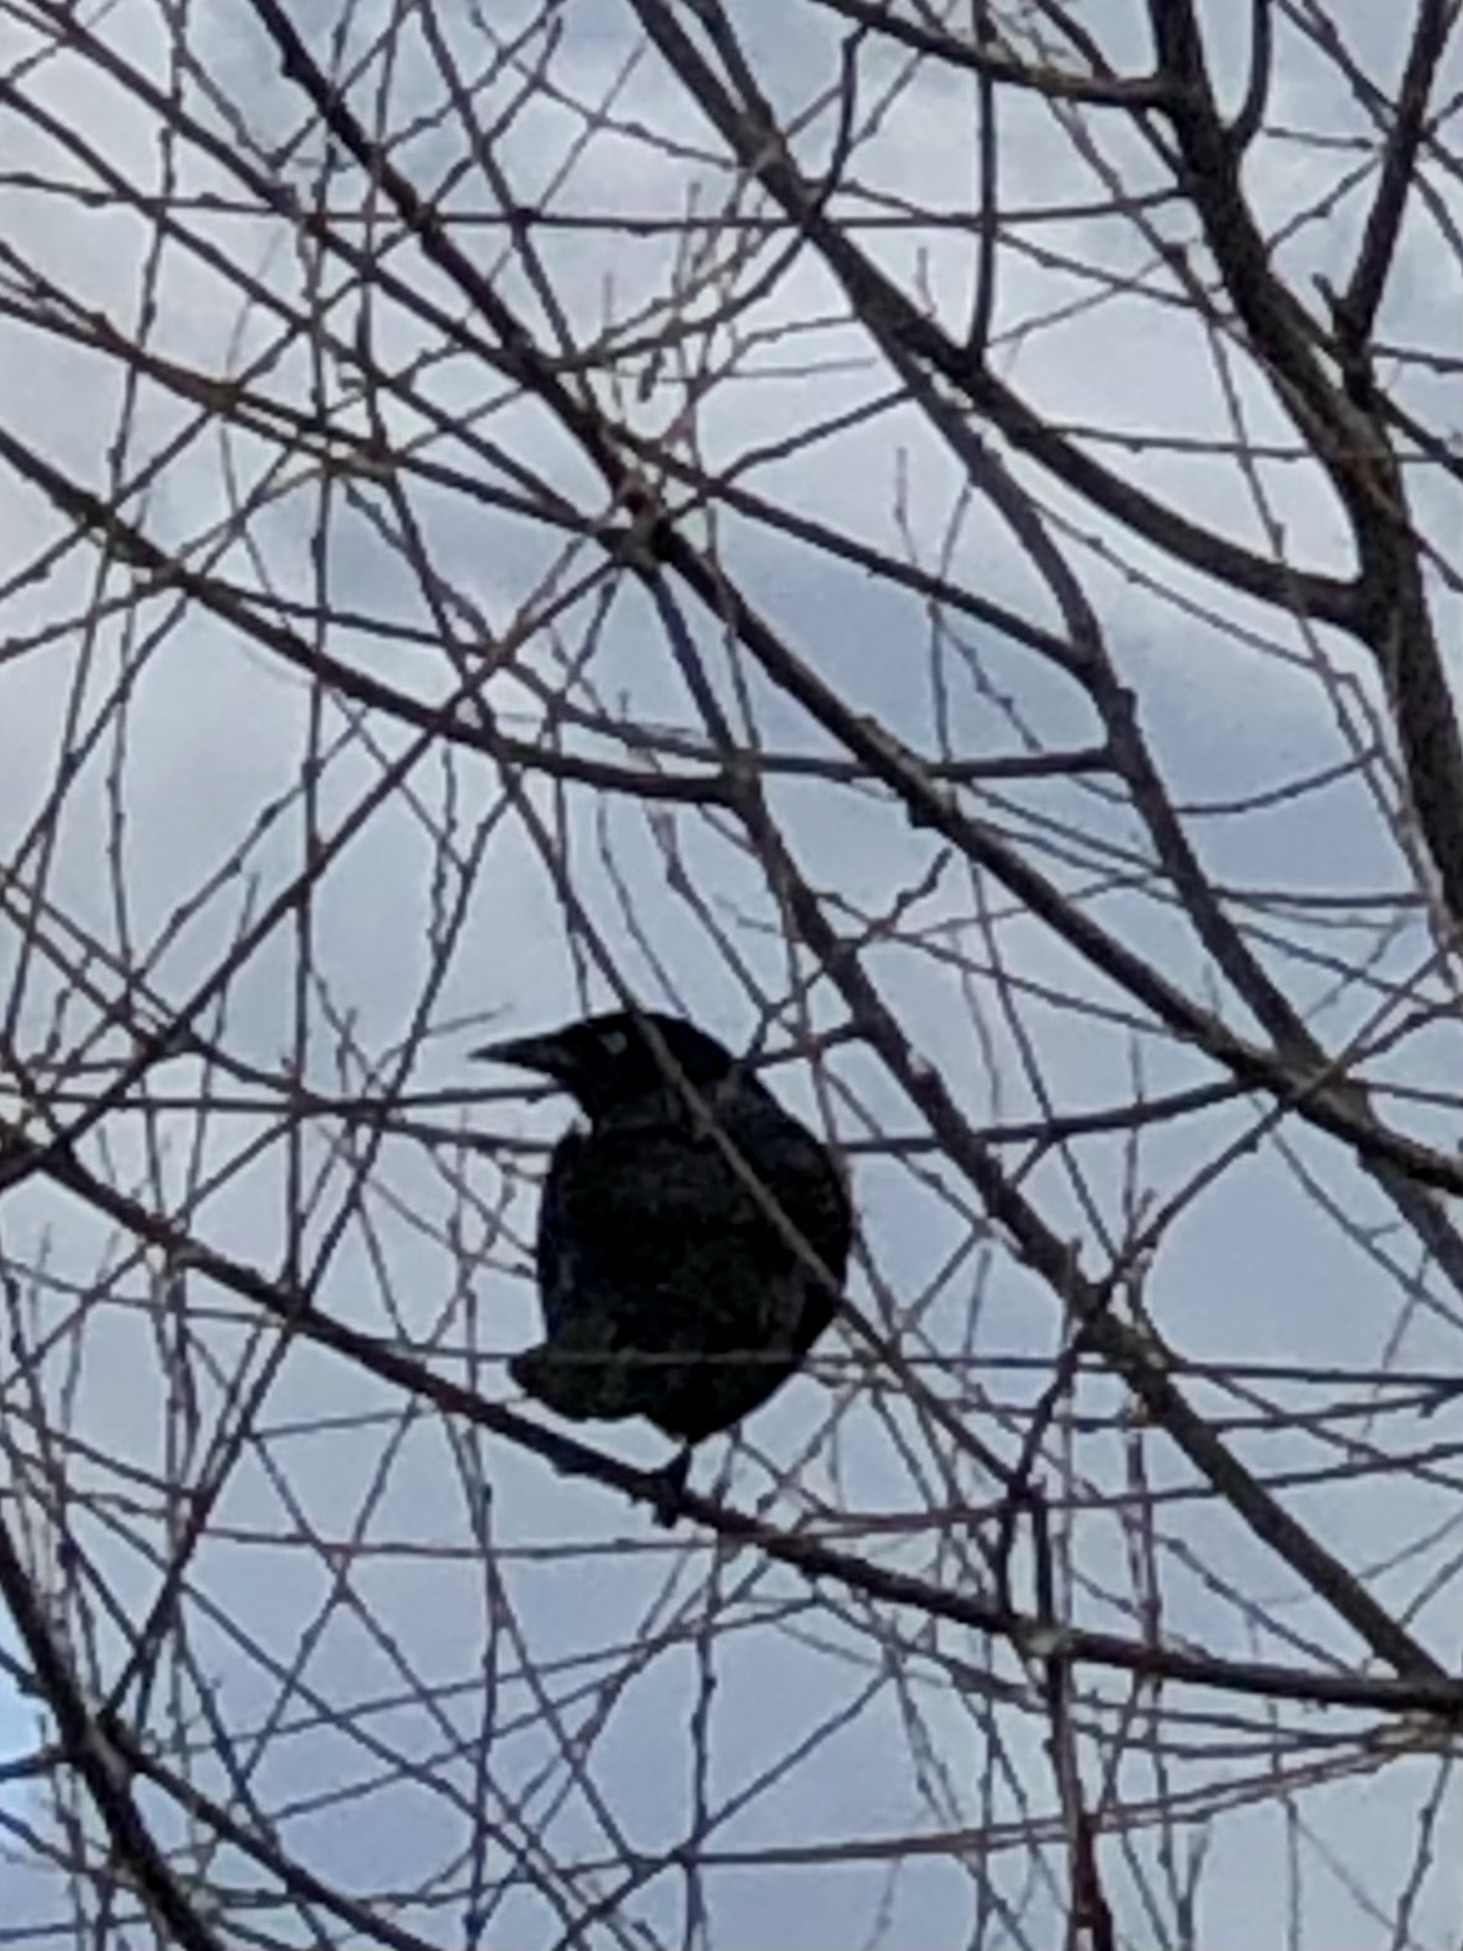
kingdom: Animalia
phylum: Chordata
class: Aves
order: Passeriformes
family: Icteridae
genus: Quiscalus
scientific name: Quiscalus quiscula
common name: Common grackle
